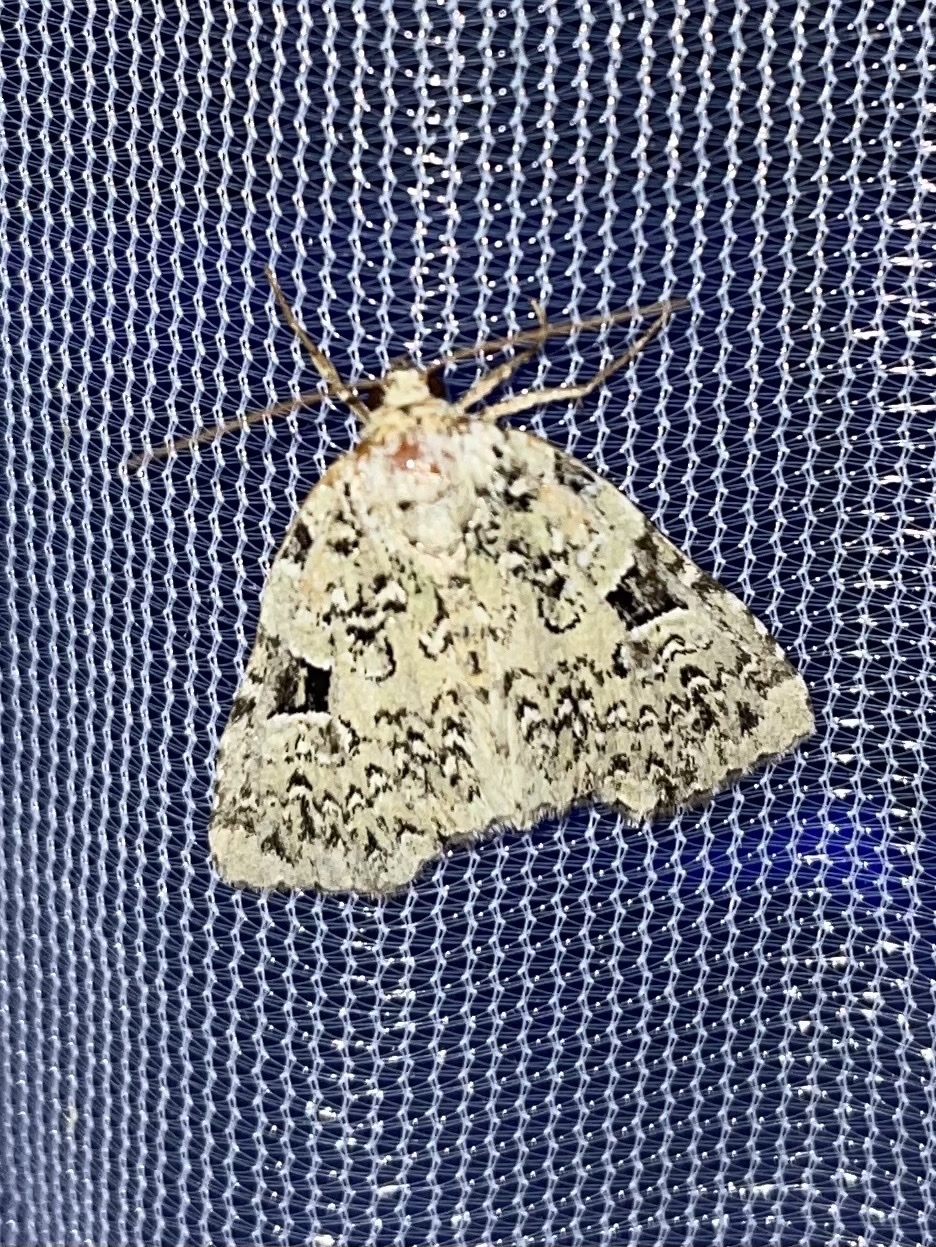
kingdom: Animalia
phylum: Arthropoda
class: Insecta
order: Lepidoptera
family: Noctuidae
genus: Leuconycta
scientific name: Leuconycta diphteroides
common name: Green leuconycta moth
